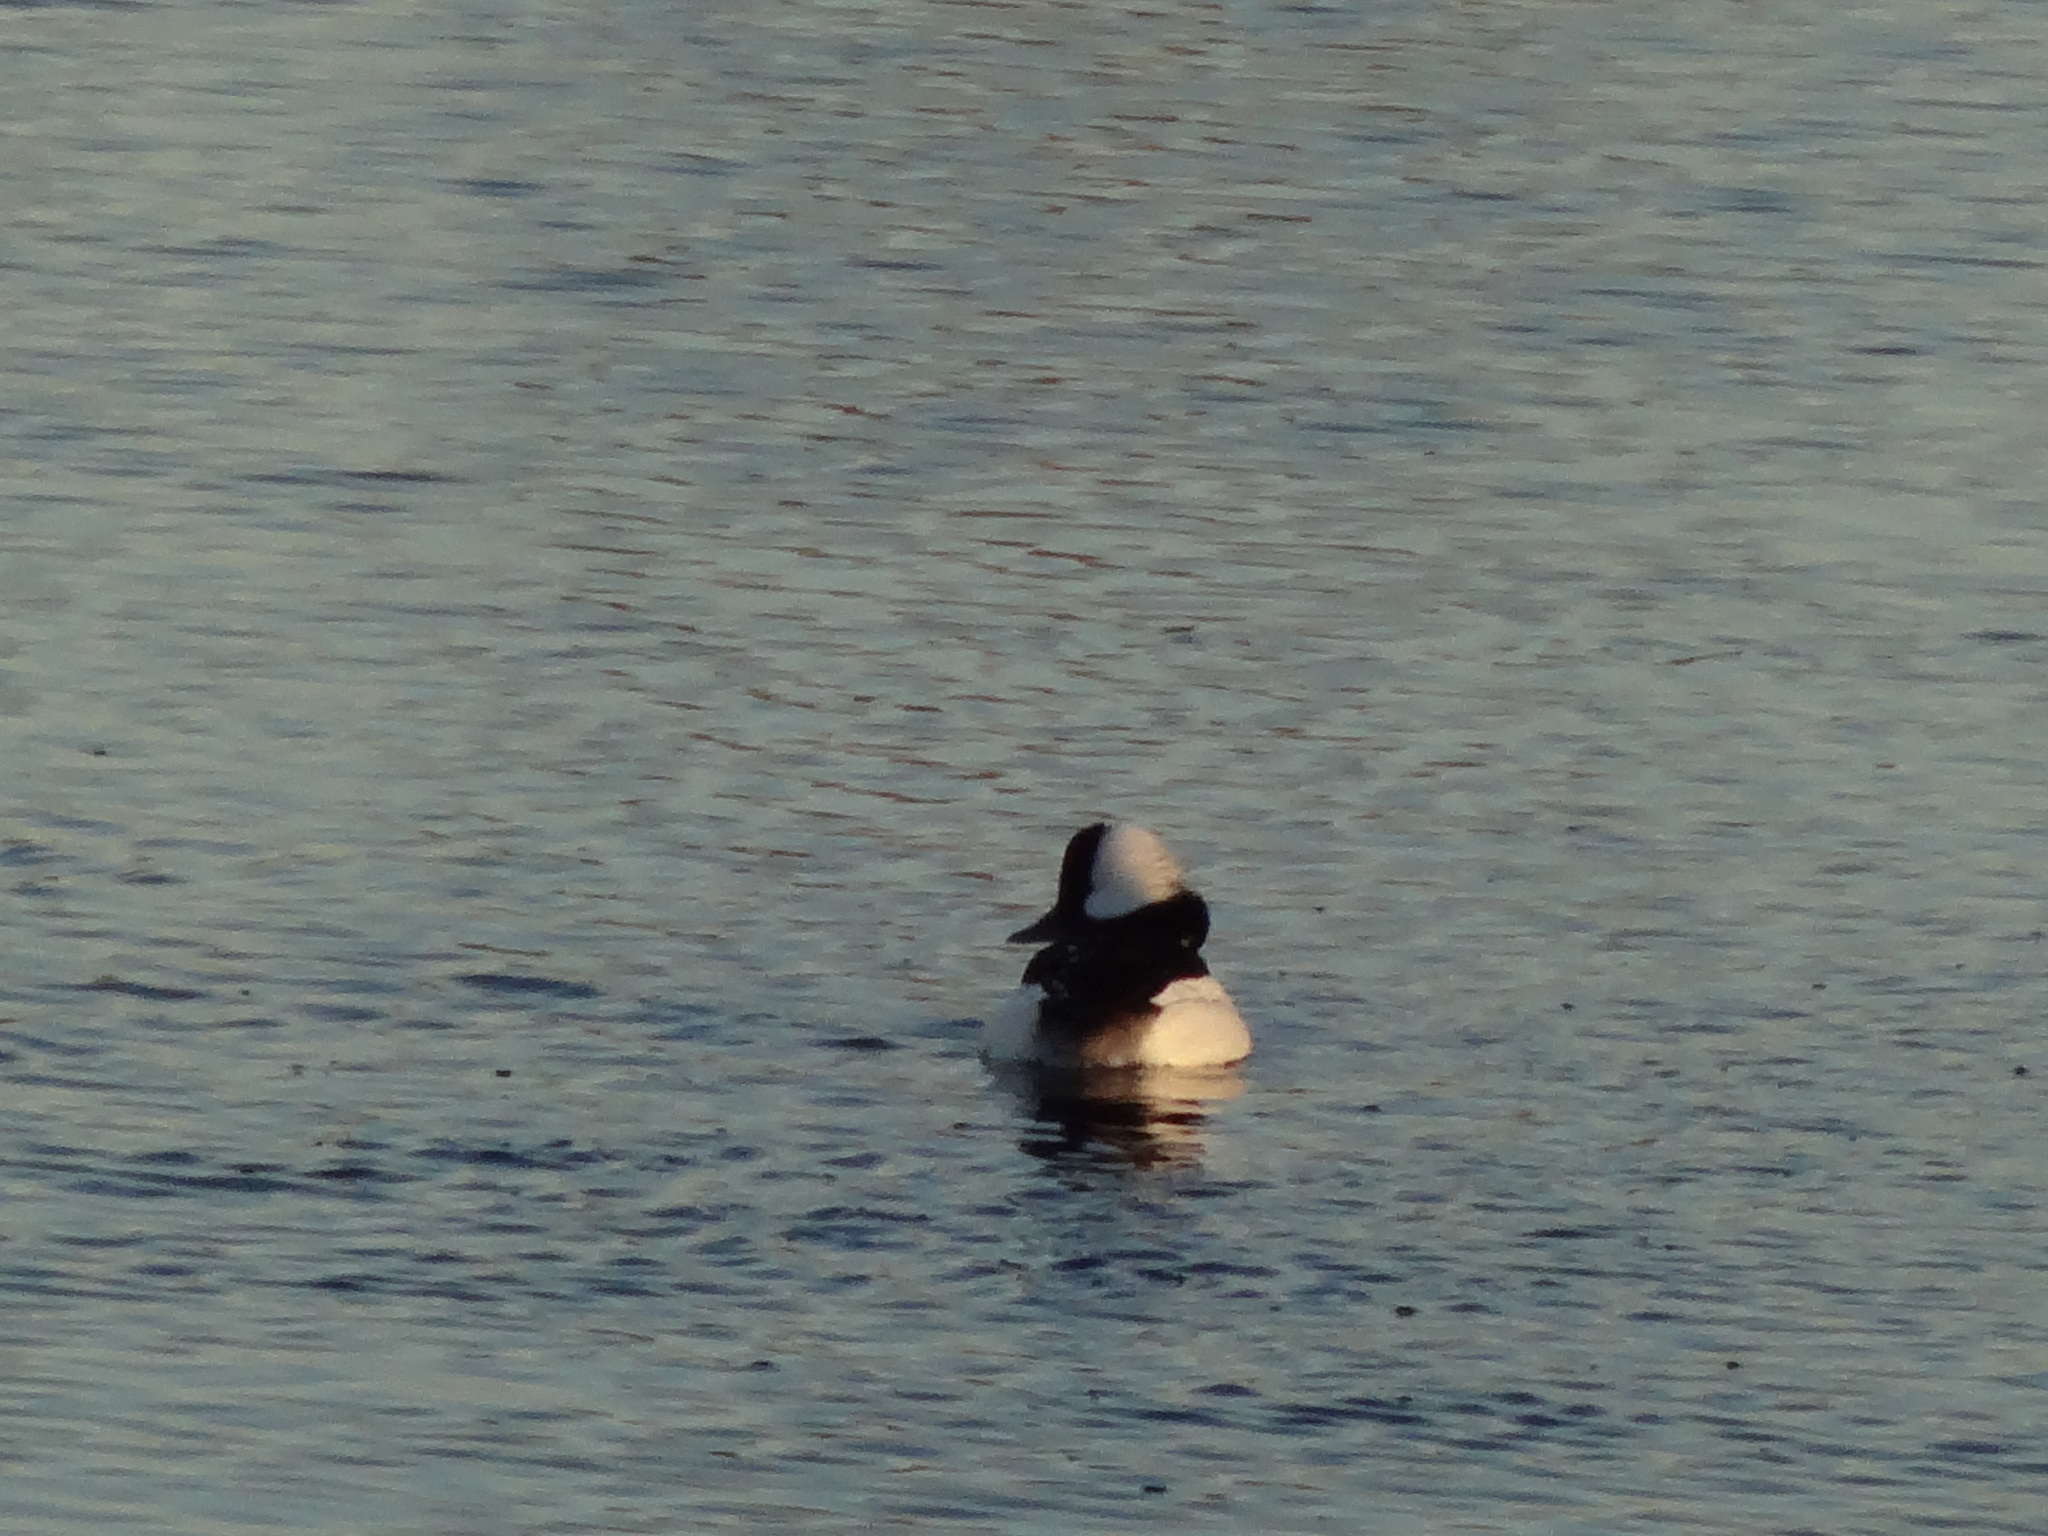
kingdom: Animalia
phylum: Chordata
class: Aves
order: Anseriformes
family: Anatidae
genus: Bucephala
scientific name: Bucephala albeola
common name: Bufflehead
